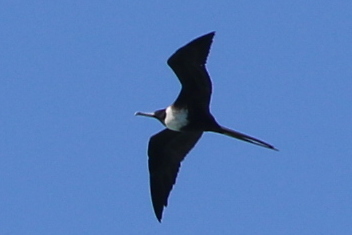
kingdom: Animalia
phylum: Chordata
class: Aves
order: Suliformes
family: Fregatidae
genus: Fregata
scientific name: Fregata magnificens
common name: Magnificent frigatebird
